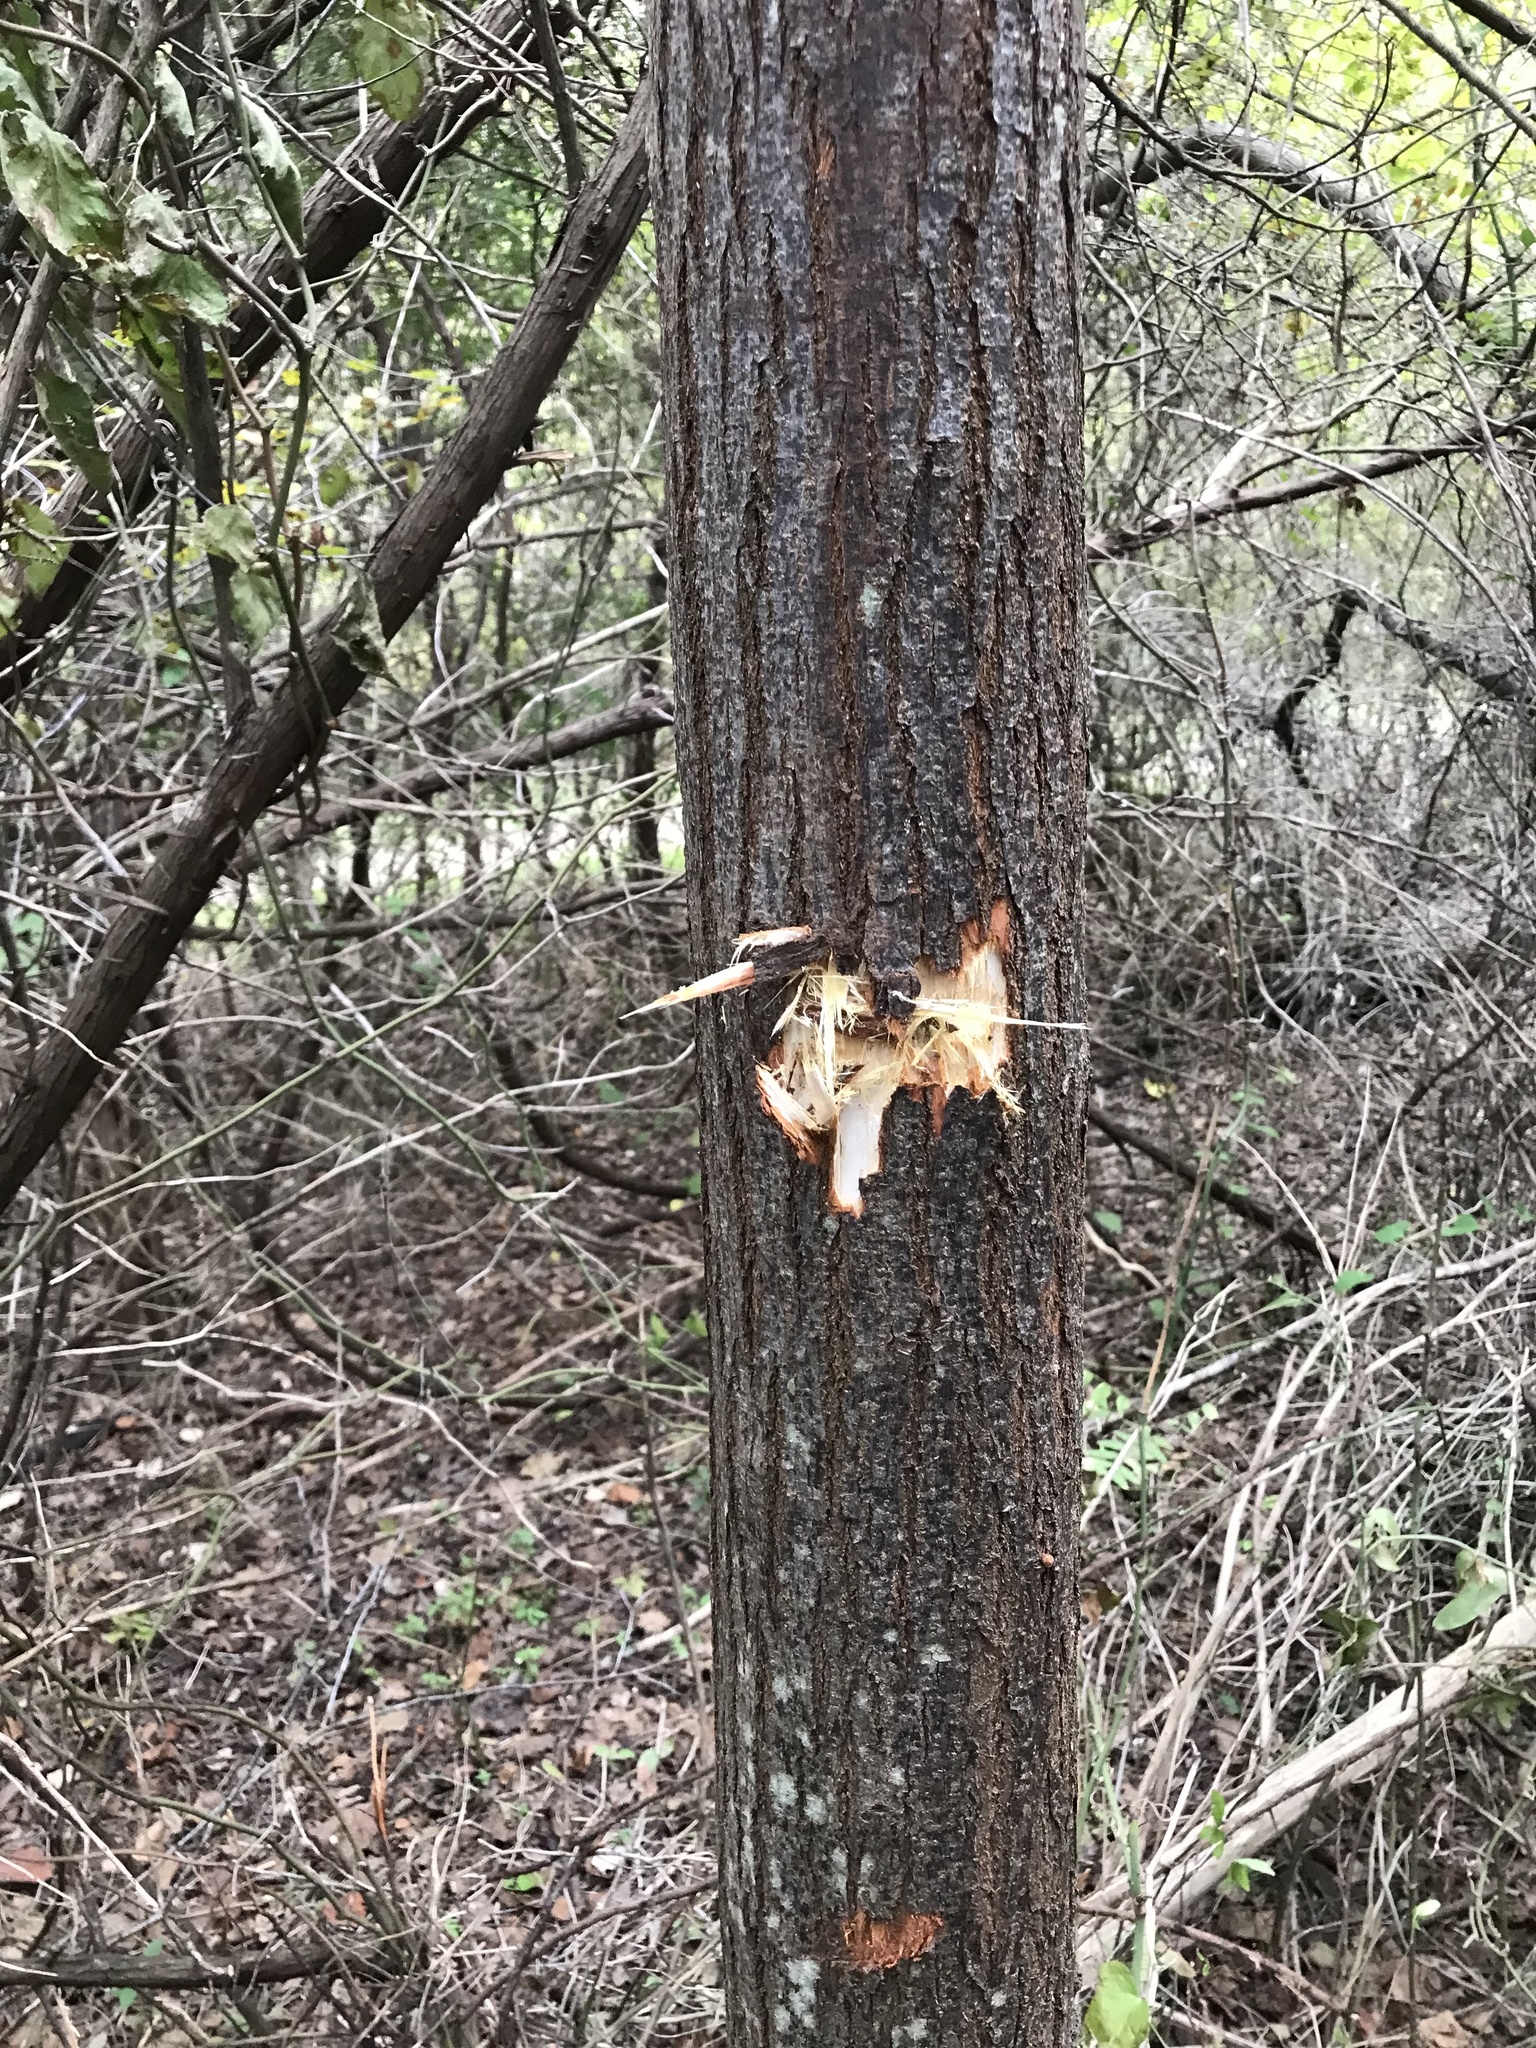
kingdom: Plantae
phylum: Tracheophyta
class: Magnoliopsida
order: Sapindales
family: Meliaceae
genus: Melia
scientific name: Melia azedarach
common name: Chinaberrytree
